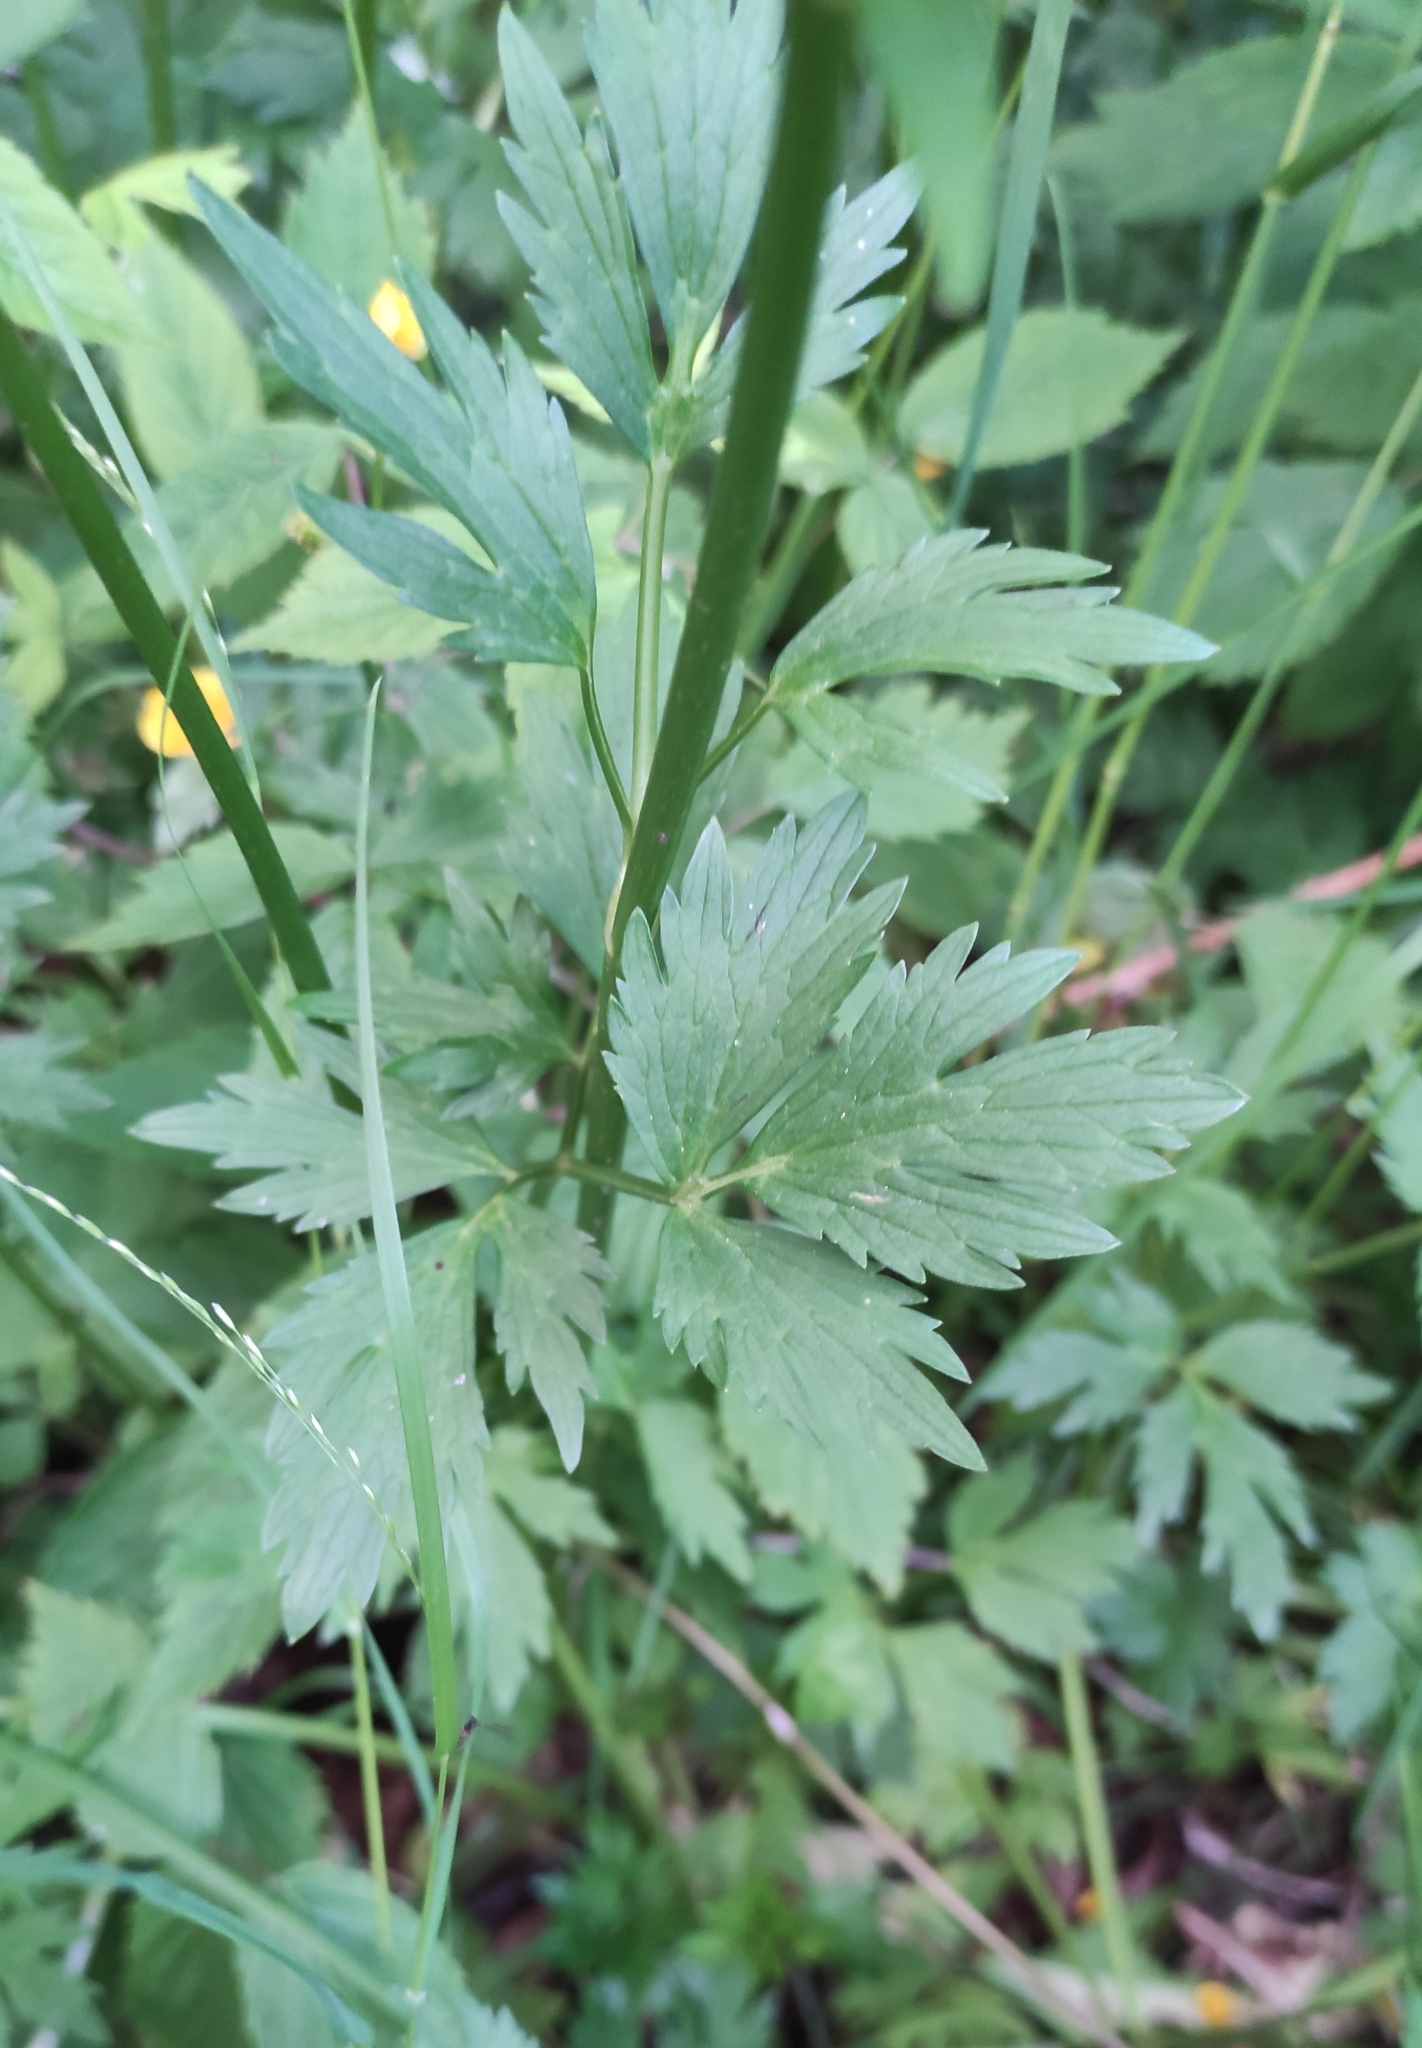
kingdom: Plantae
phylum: Tracheophyta
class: Magnoliopsida
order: Ranunculales
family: Ranunculaceae
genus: Ranunculus
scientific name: Ranunculus repens
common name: Creeping buttercup
